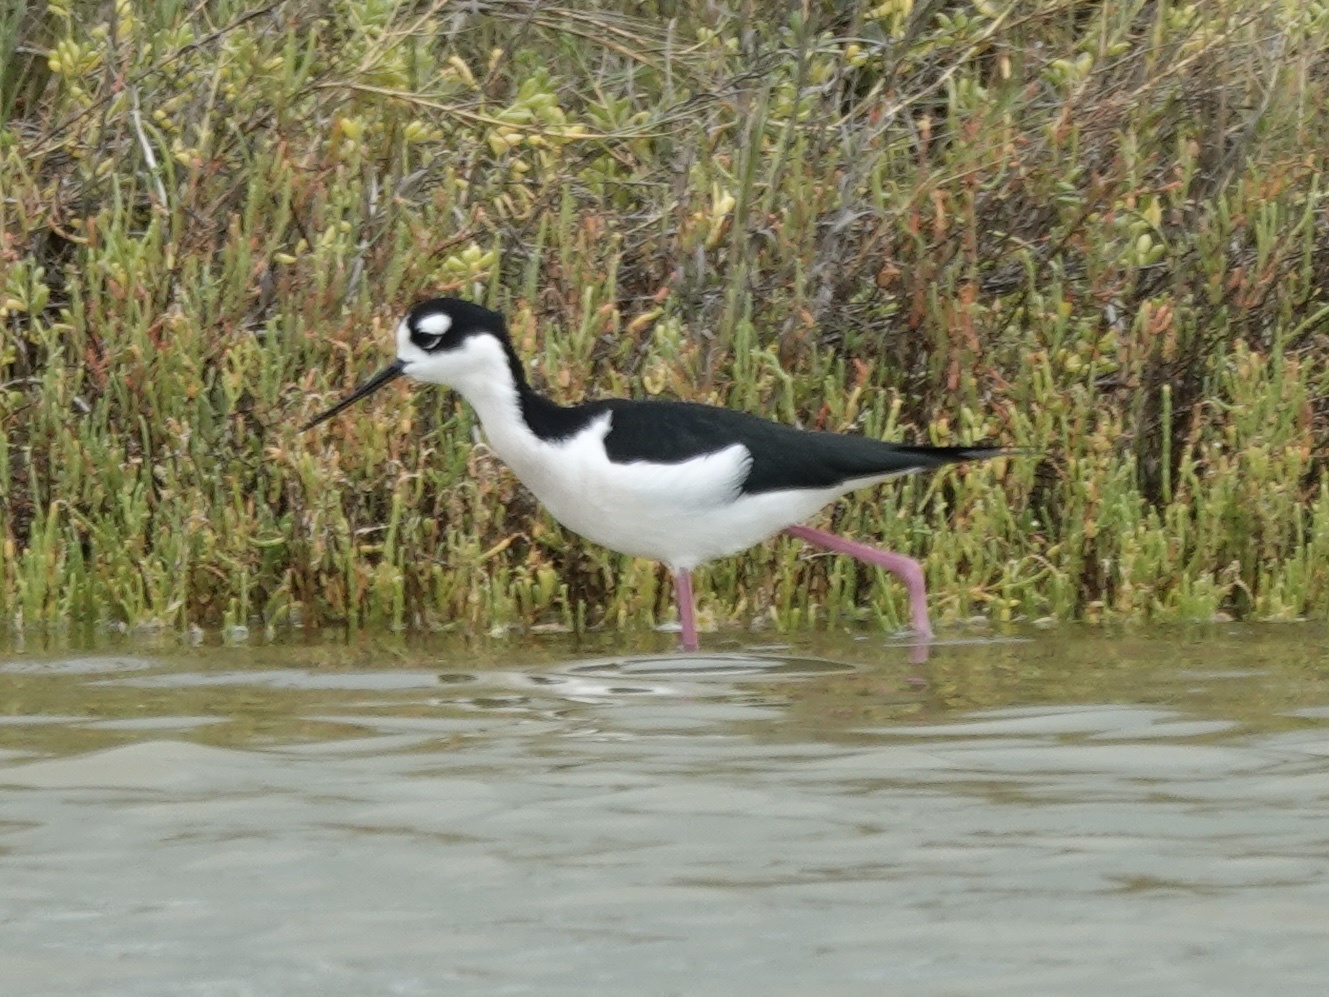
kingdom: Animalia
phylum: Chordata
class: Aves
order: Charadriiformes
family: Recurvirostridae
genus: Himantopus
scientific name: Himantopus mexicanus
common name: Black-necked stilt
